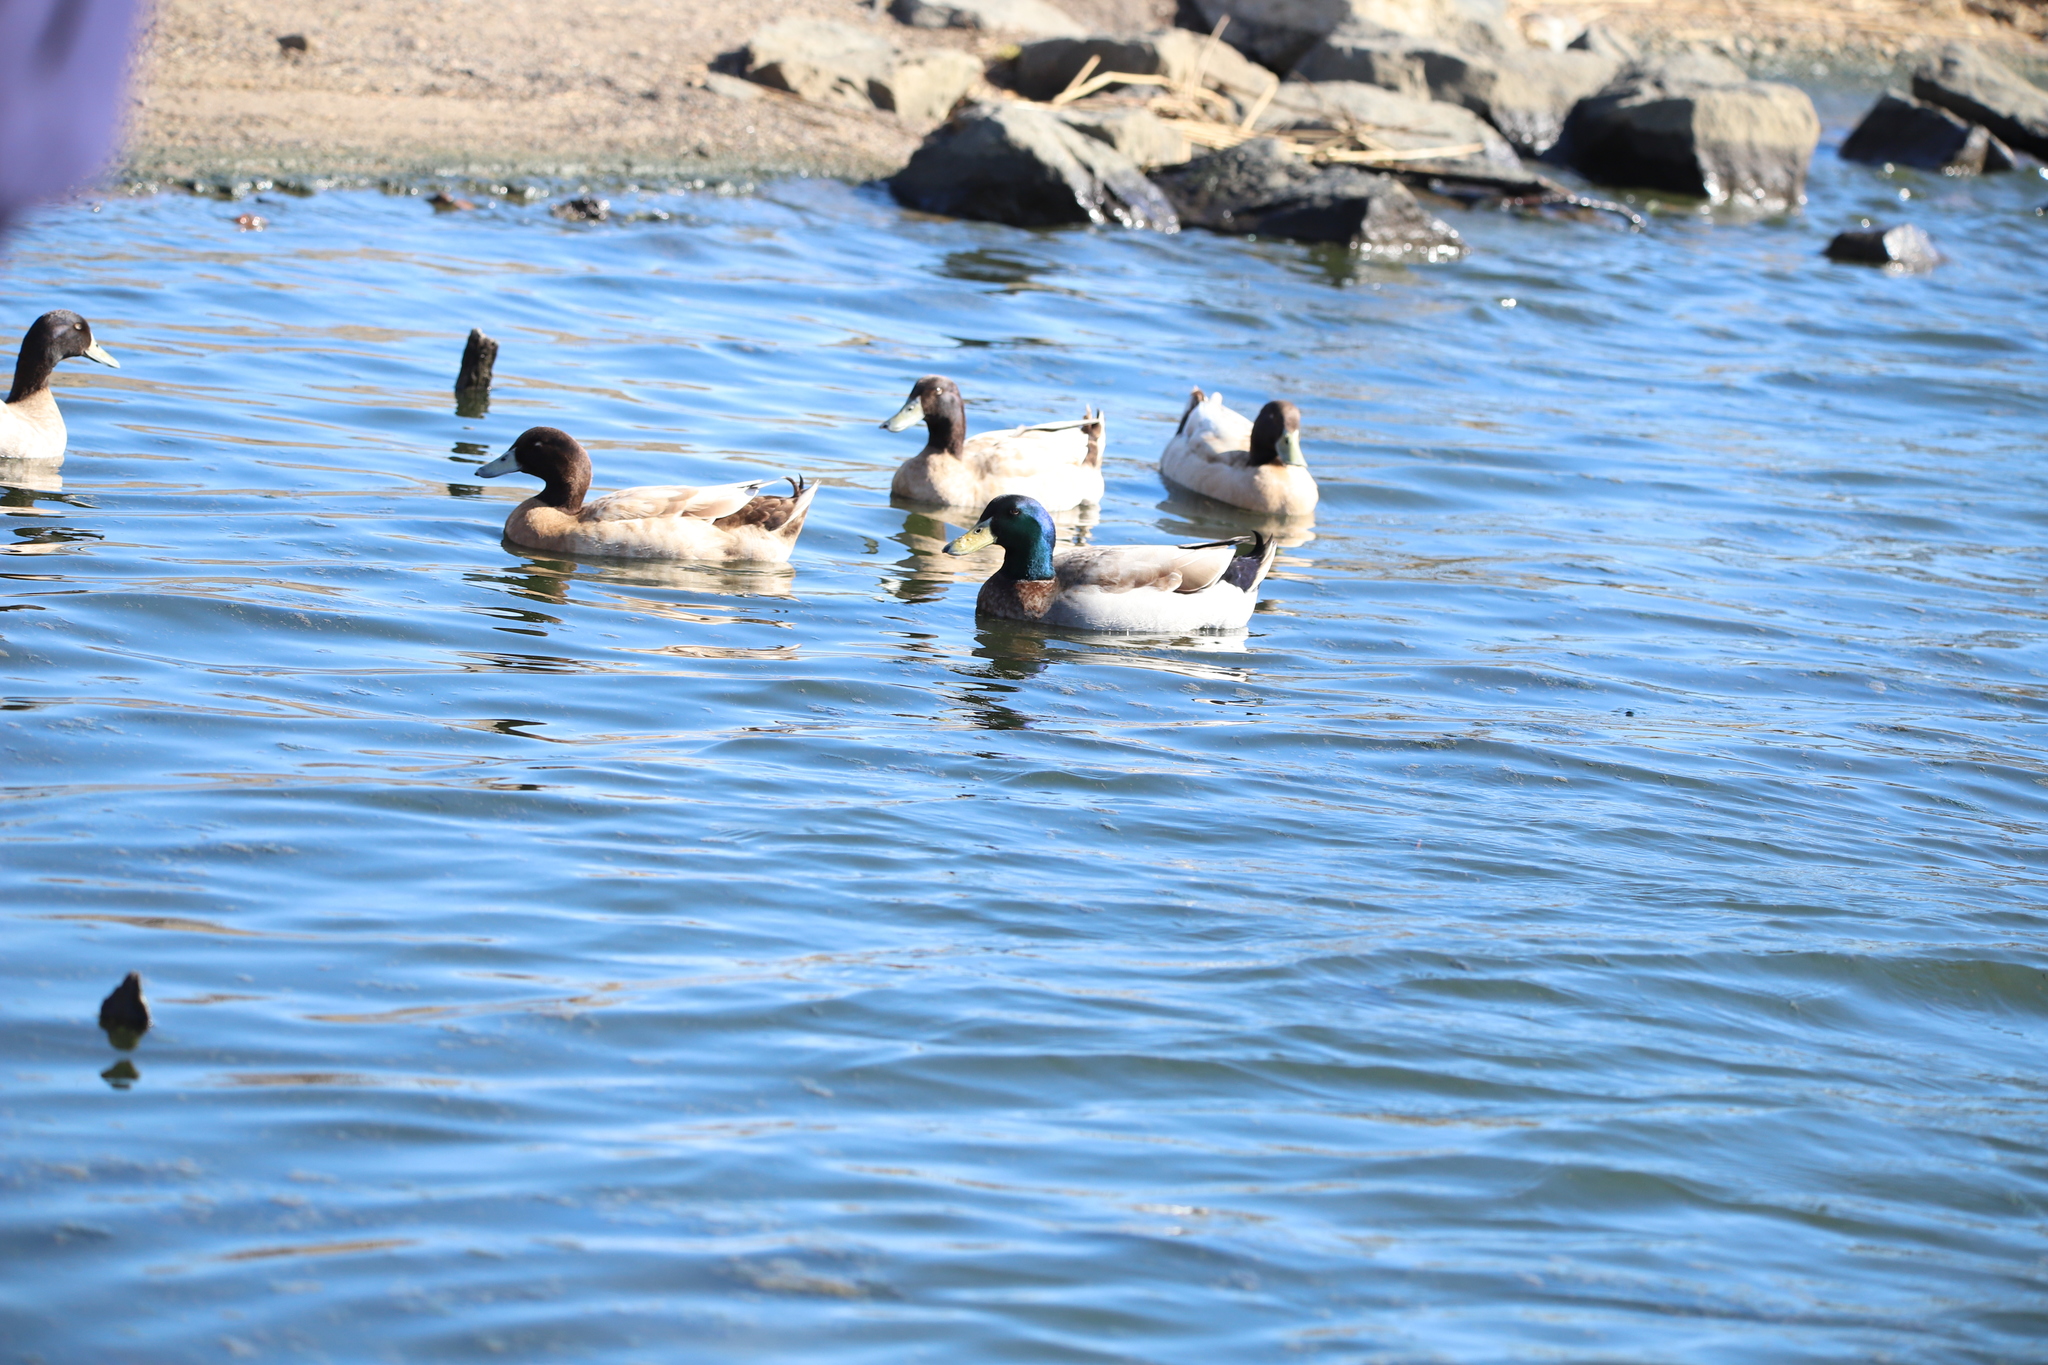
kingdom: Animalia
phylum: Chordata
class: Aves
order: Anseriformes
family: Anatidae
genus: Anas
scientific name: Anas platyrhynchos
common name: Mallard
